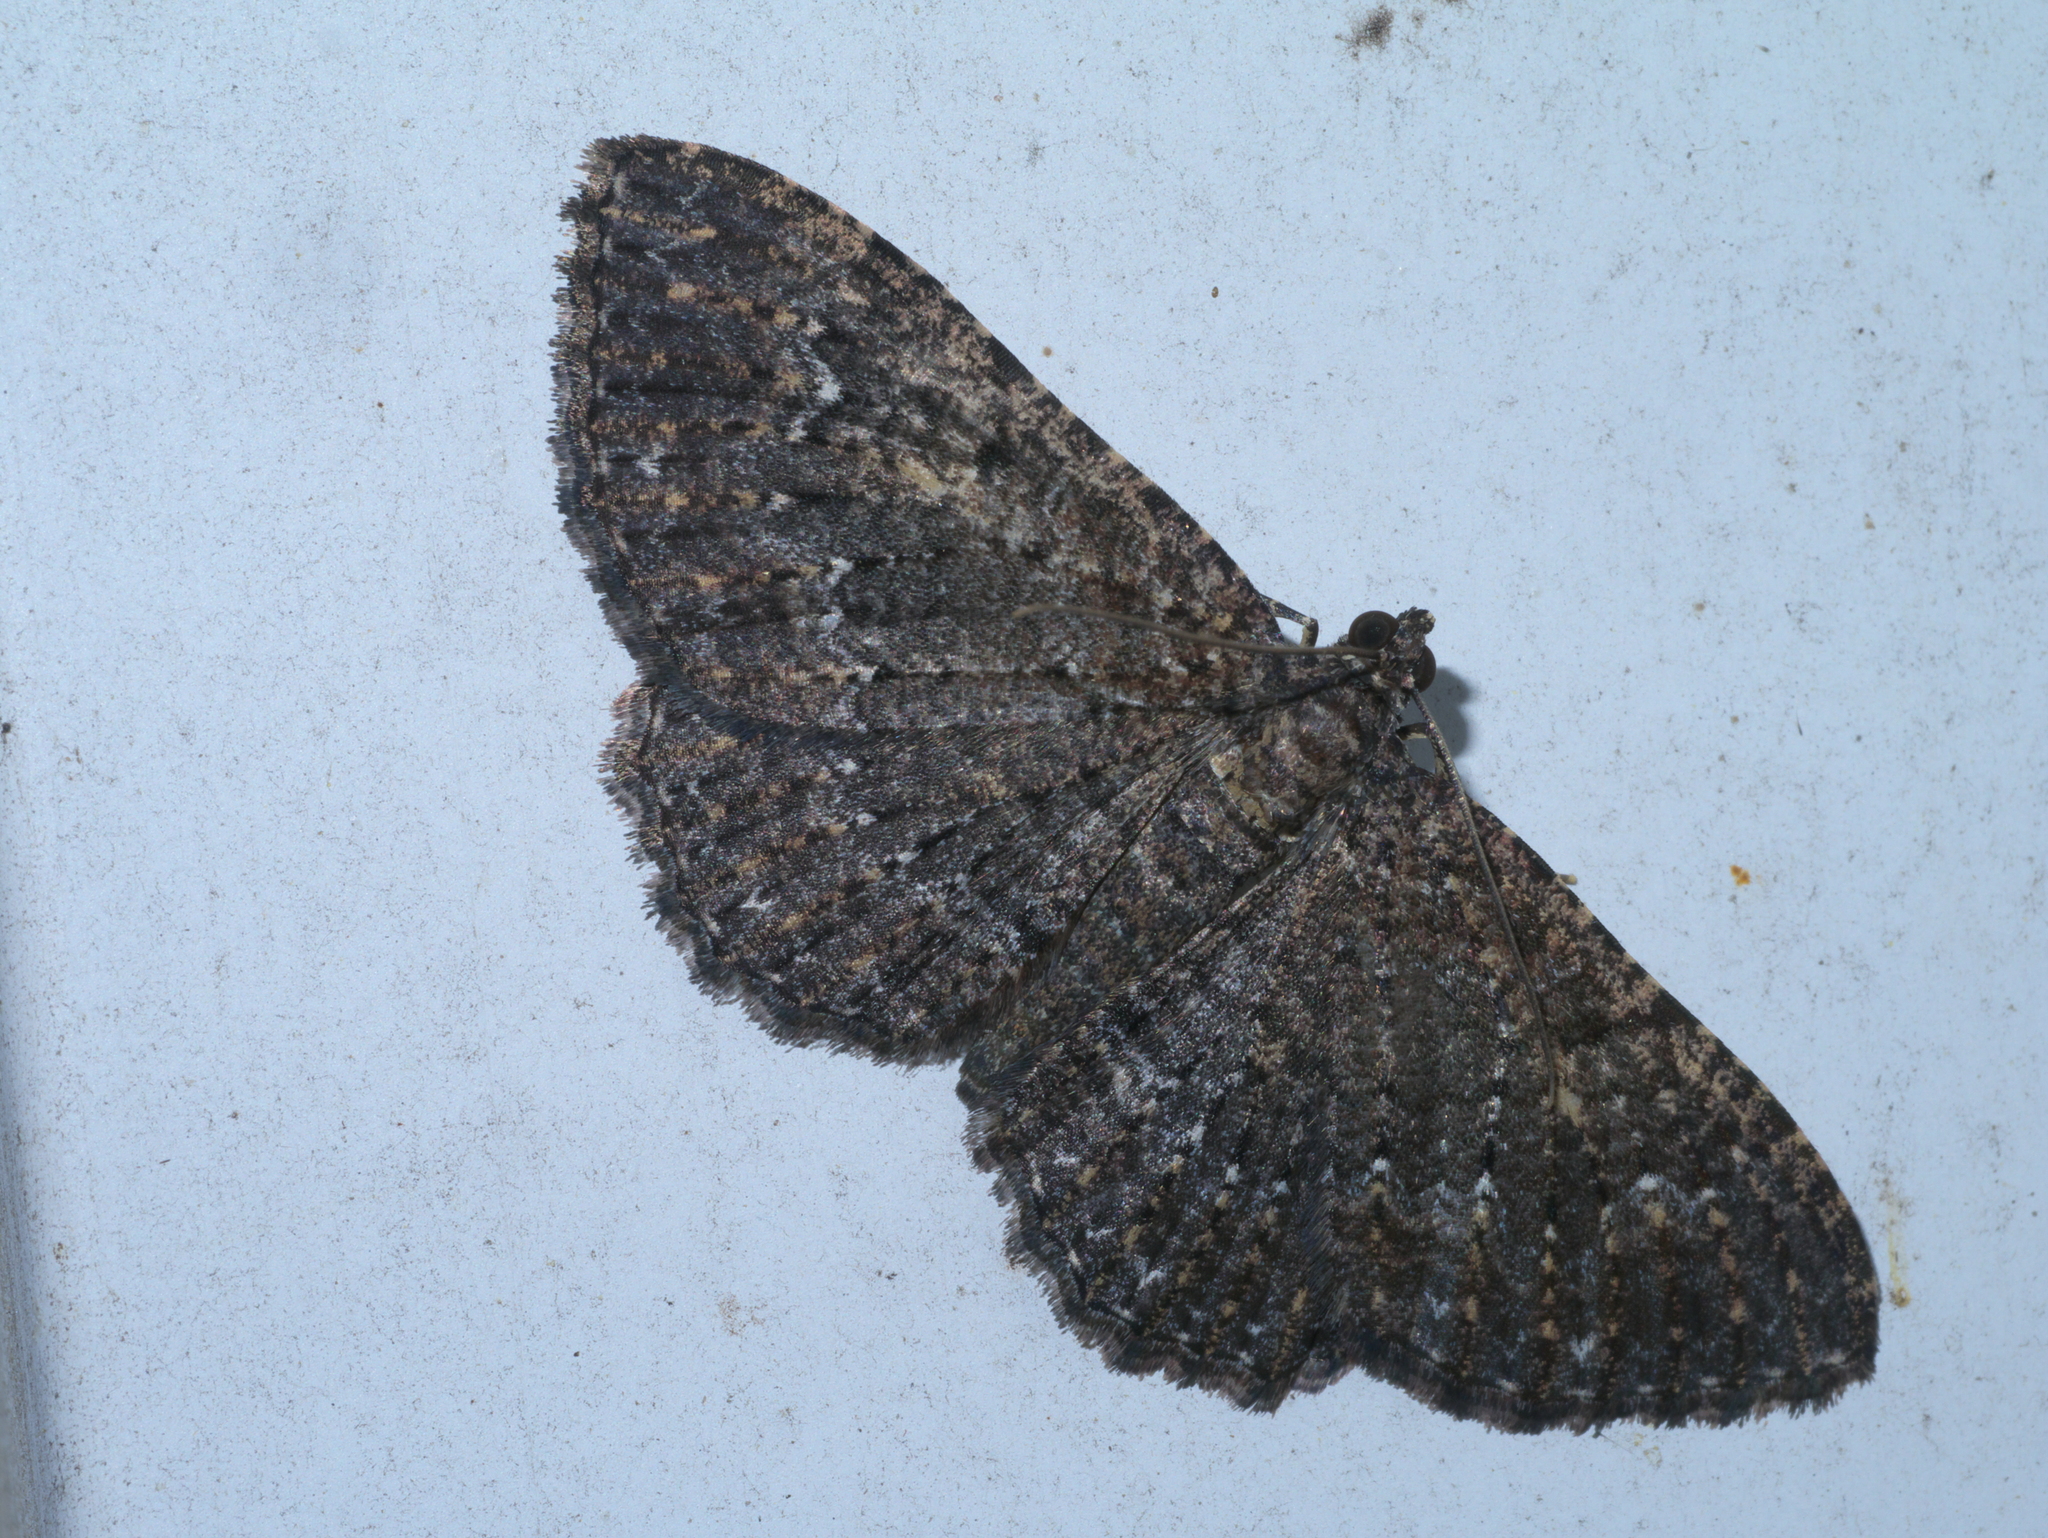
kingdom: Animalia
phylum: Arthropoda
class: Insecta
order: Lepidoptera
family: Geometridae
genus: Disclisioprocta
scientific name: Disclisioprocta stellata
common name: Somber carpet
